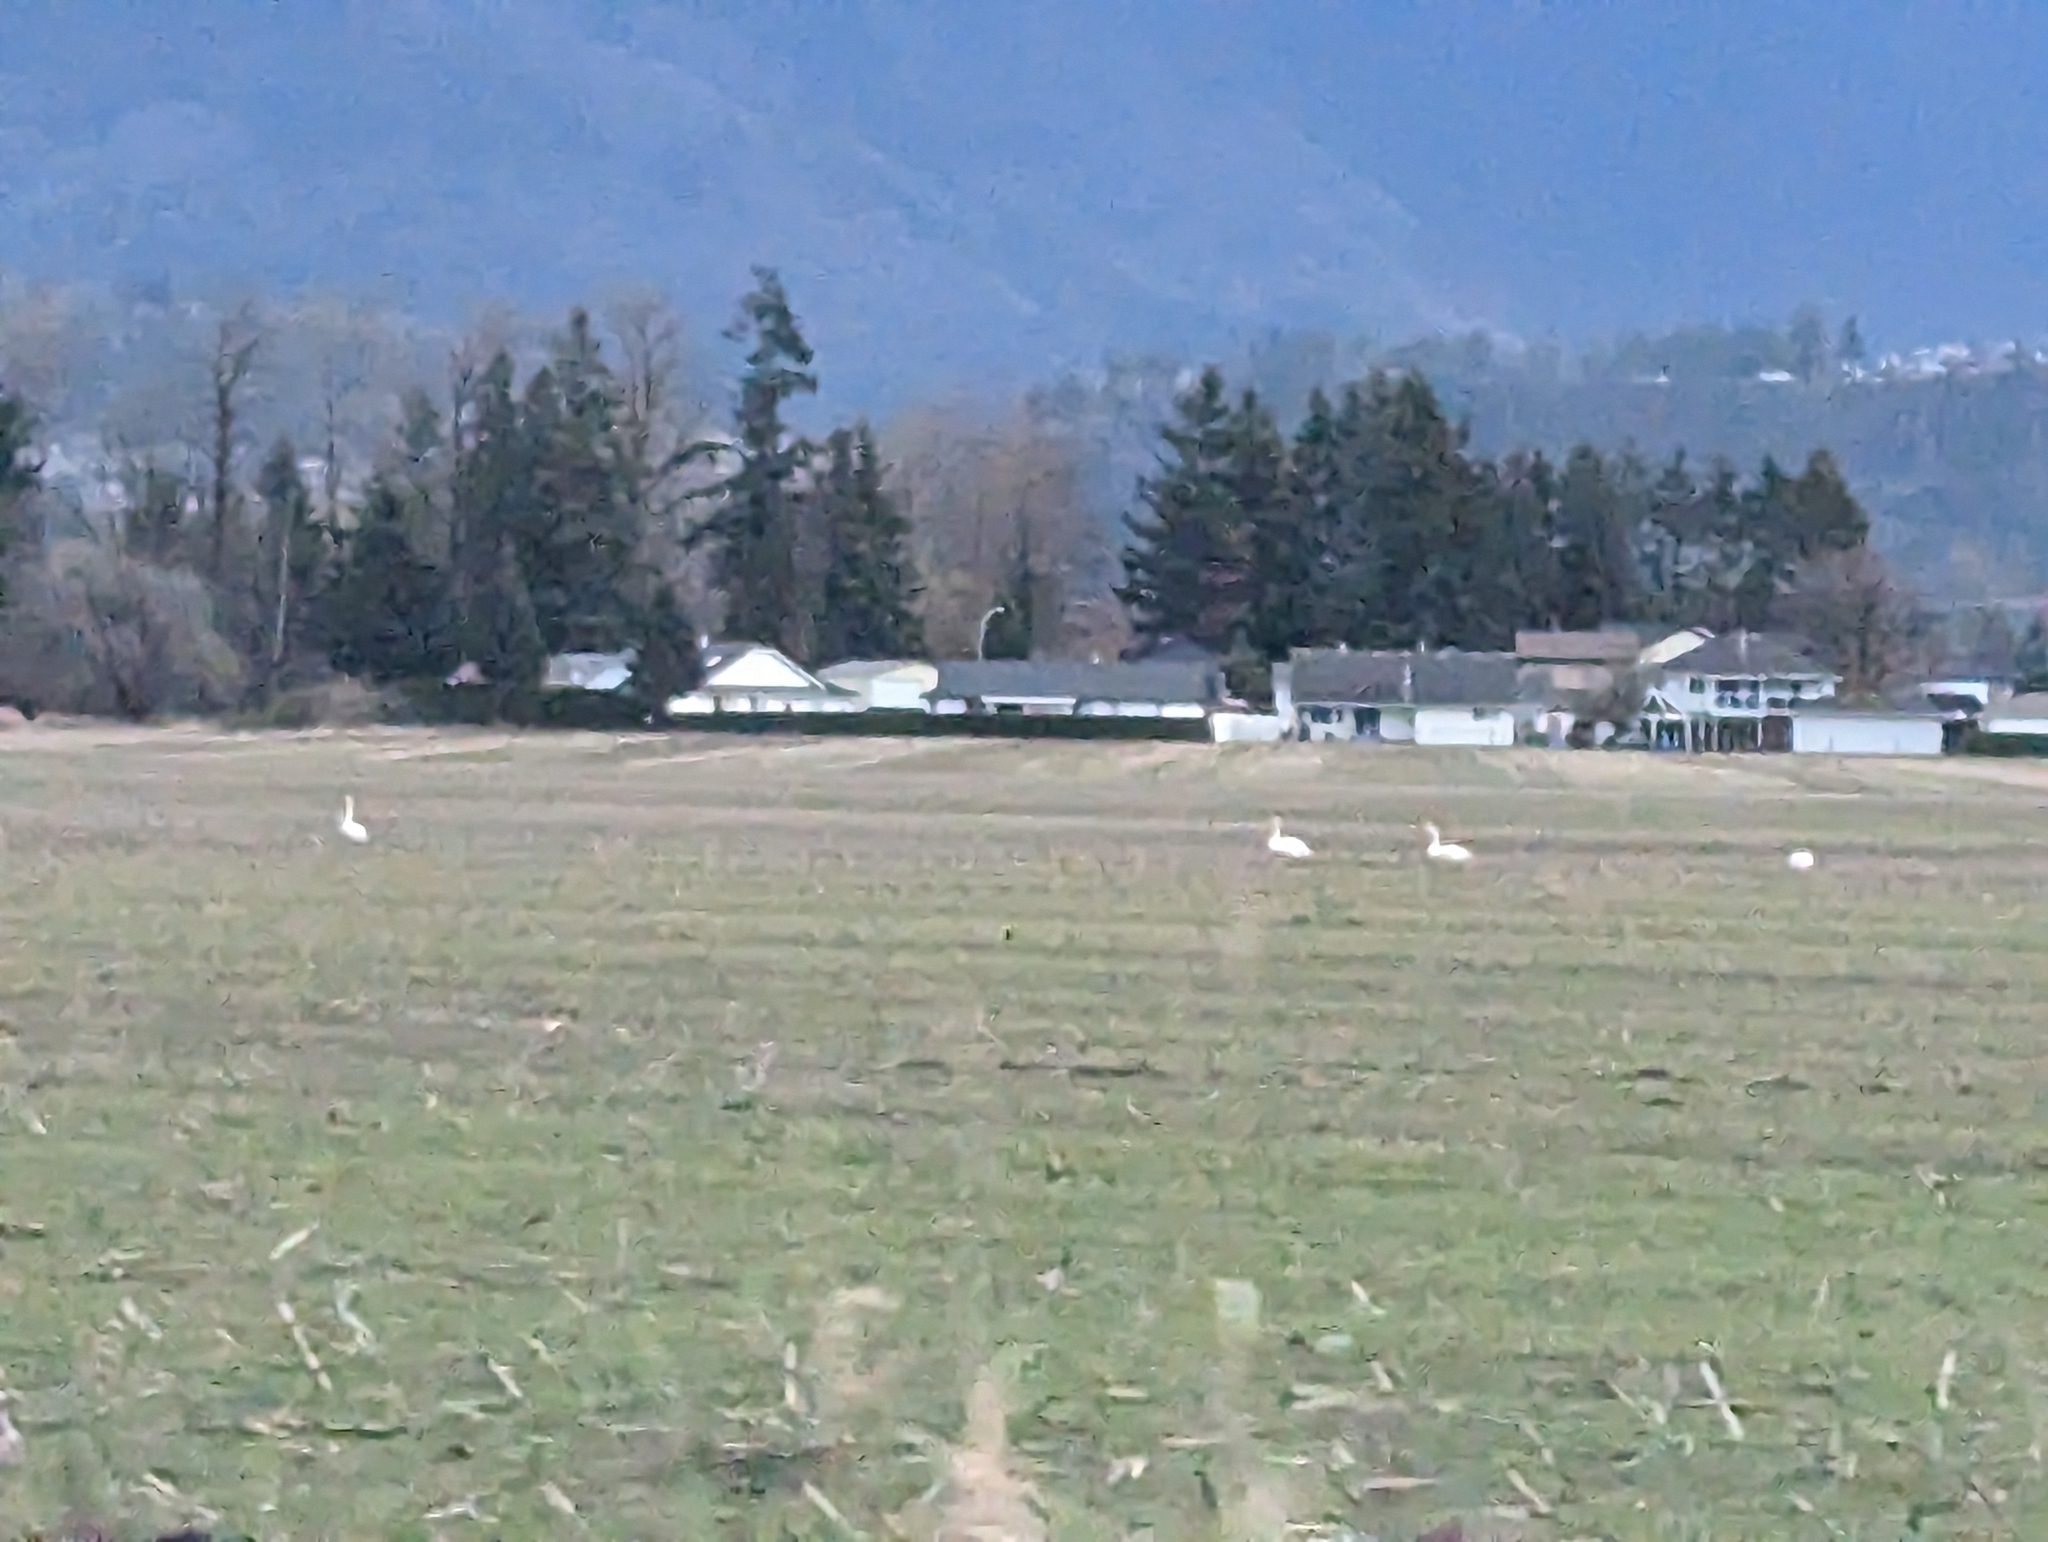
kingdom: Animalia
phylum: Chordata
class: Aves
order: Anseriformes
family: Anatidae
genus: Cygnus
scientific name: Cygnus buccinator
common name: Trumpeter swan
